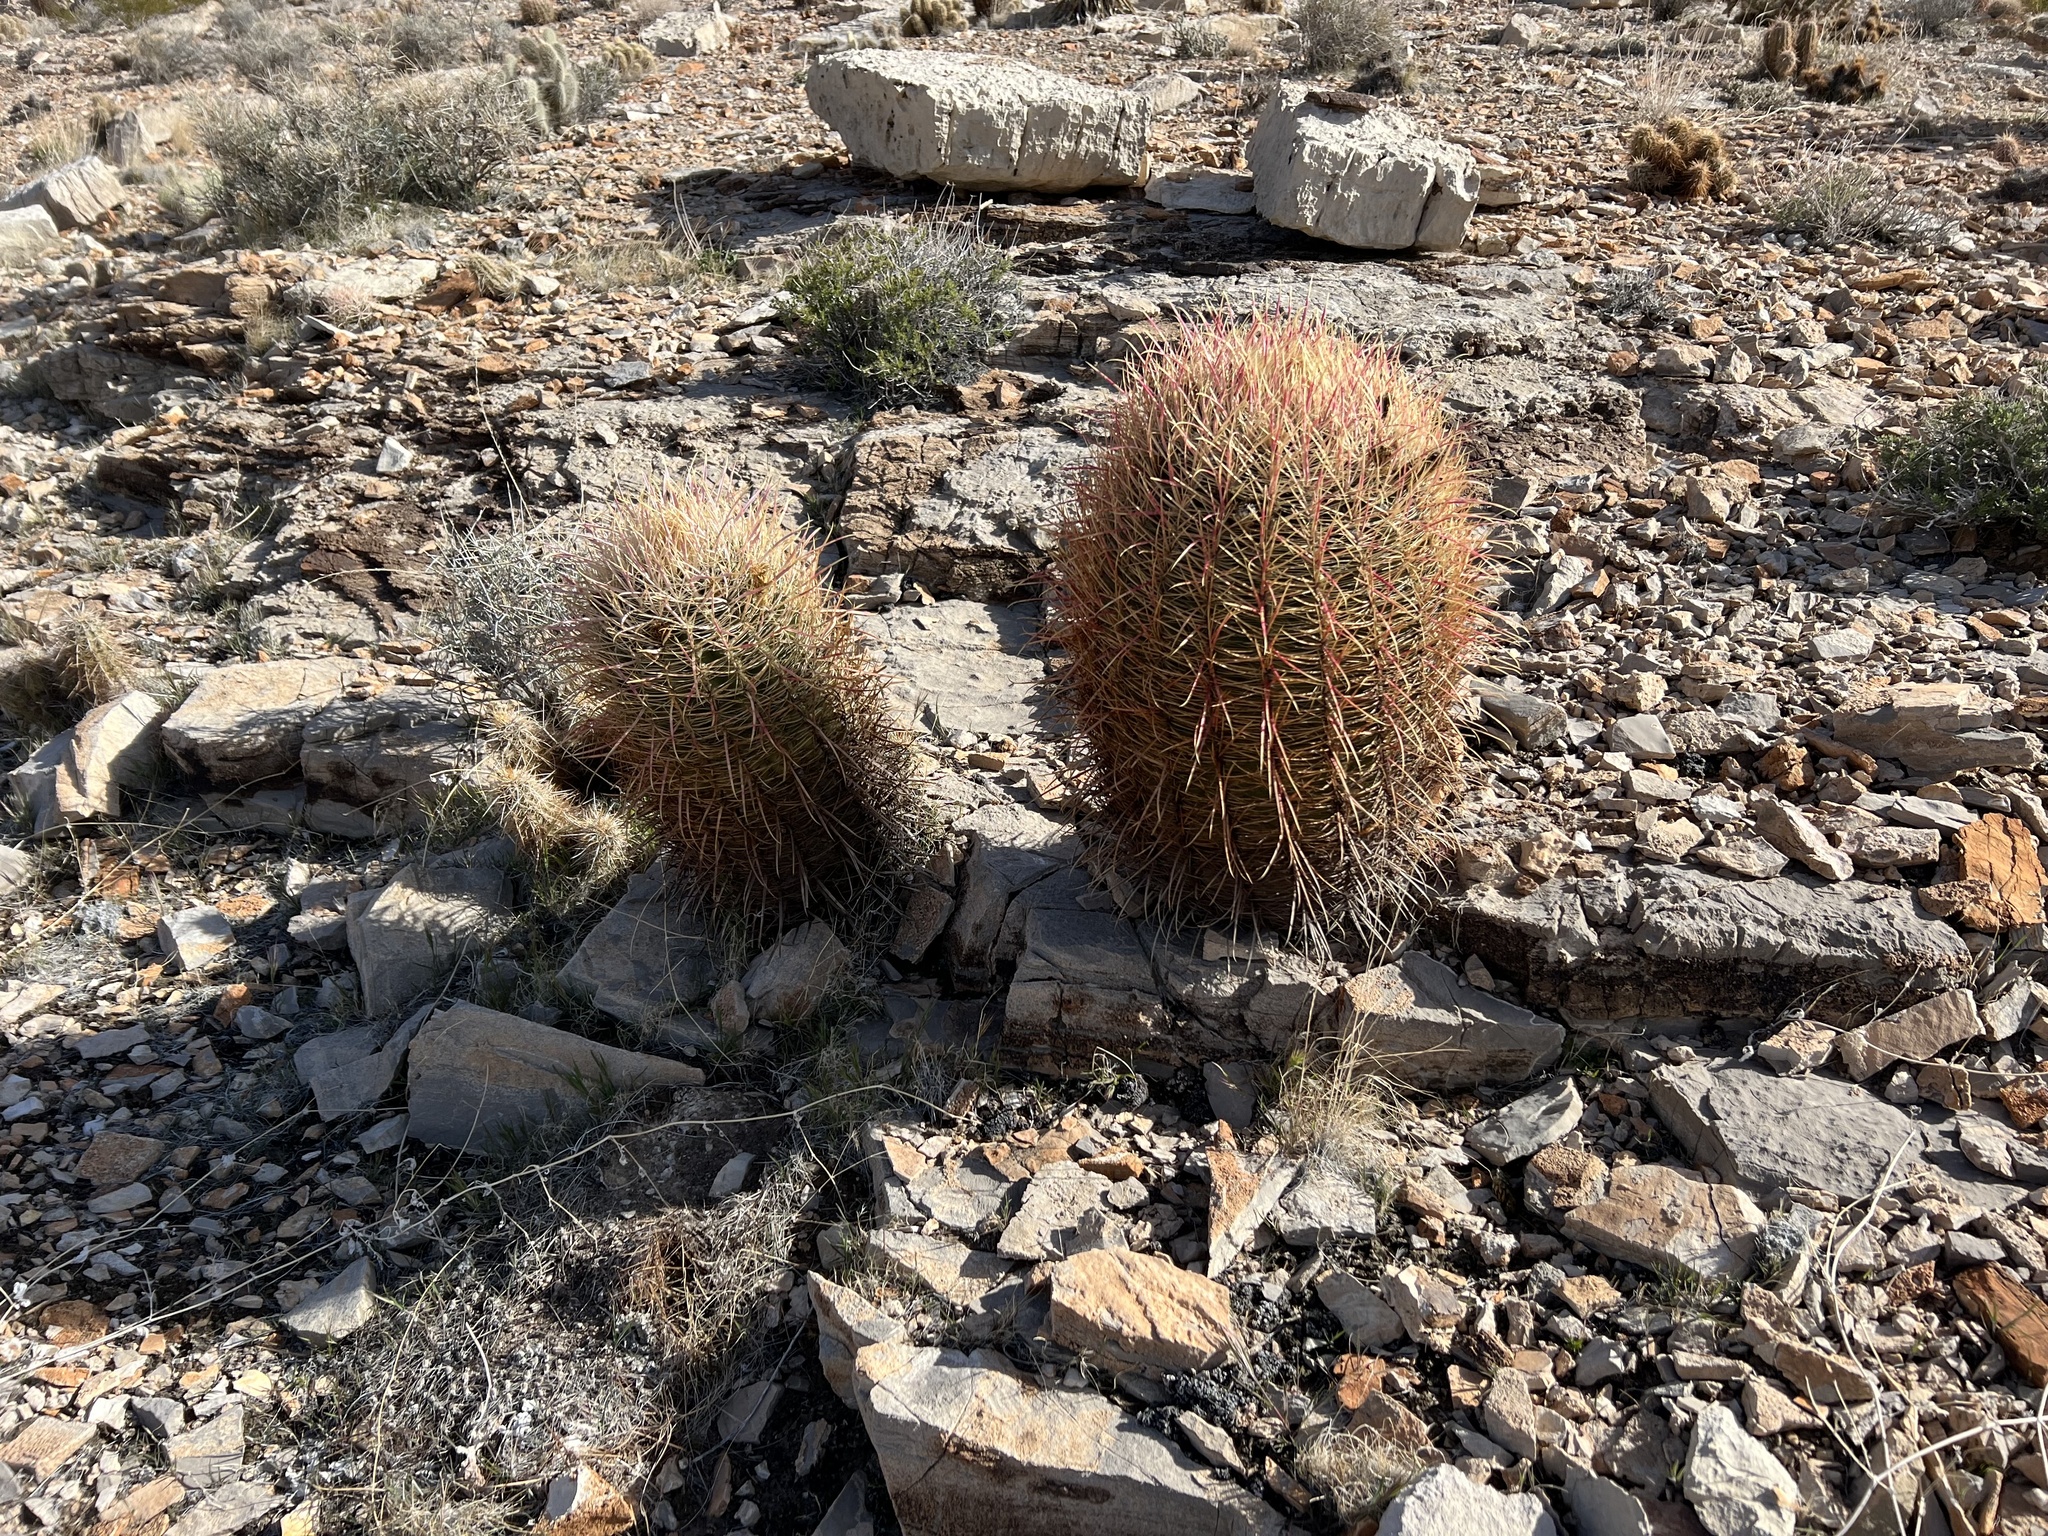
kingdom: Plantae
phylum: Tracheophyta
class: Magnoliopsida
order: Caryophyllales
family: Cactaceae
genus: Ferocactus
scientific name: Ferocactus cylindraceus
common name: California barrel cactus
